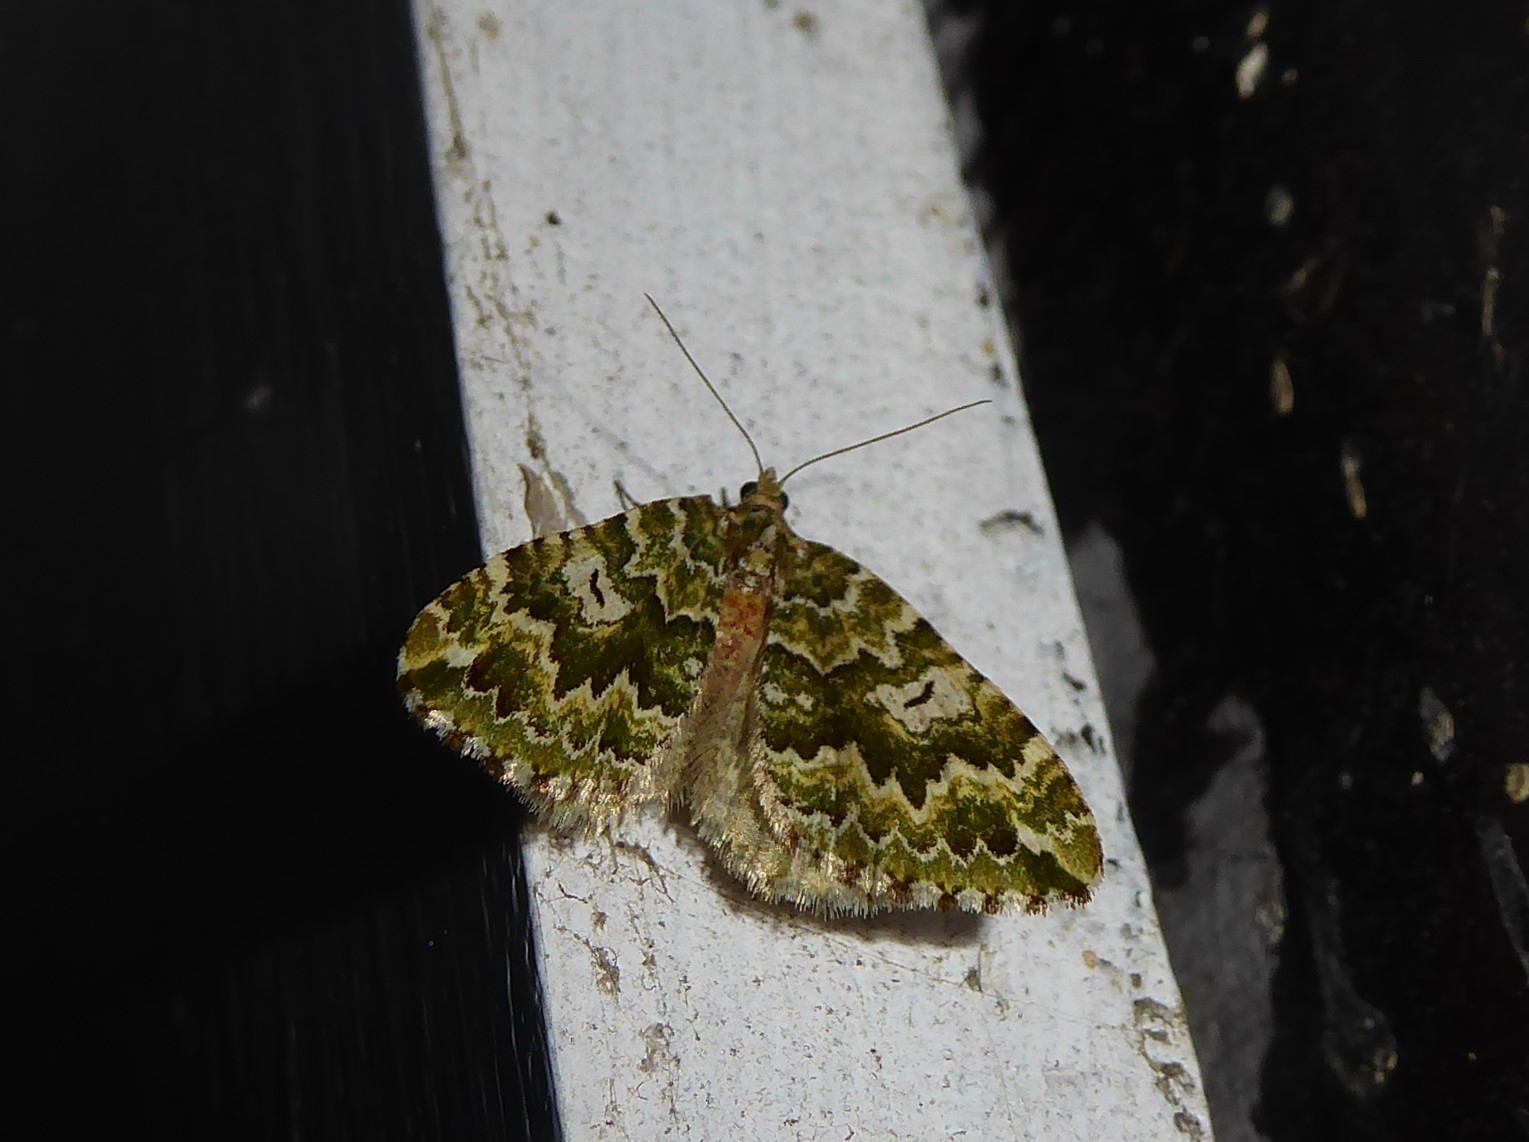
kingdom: Animalia
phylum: Arthropoda
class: Insecta
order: Lepidoptera
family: Geometridae
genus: Asaphodes
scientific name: Asaphodes beata
